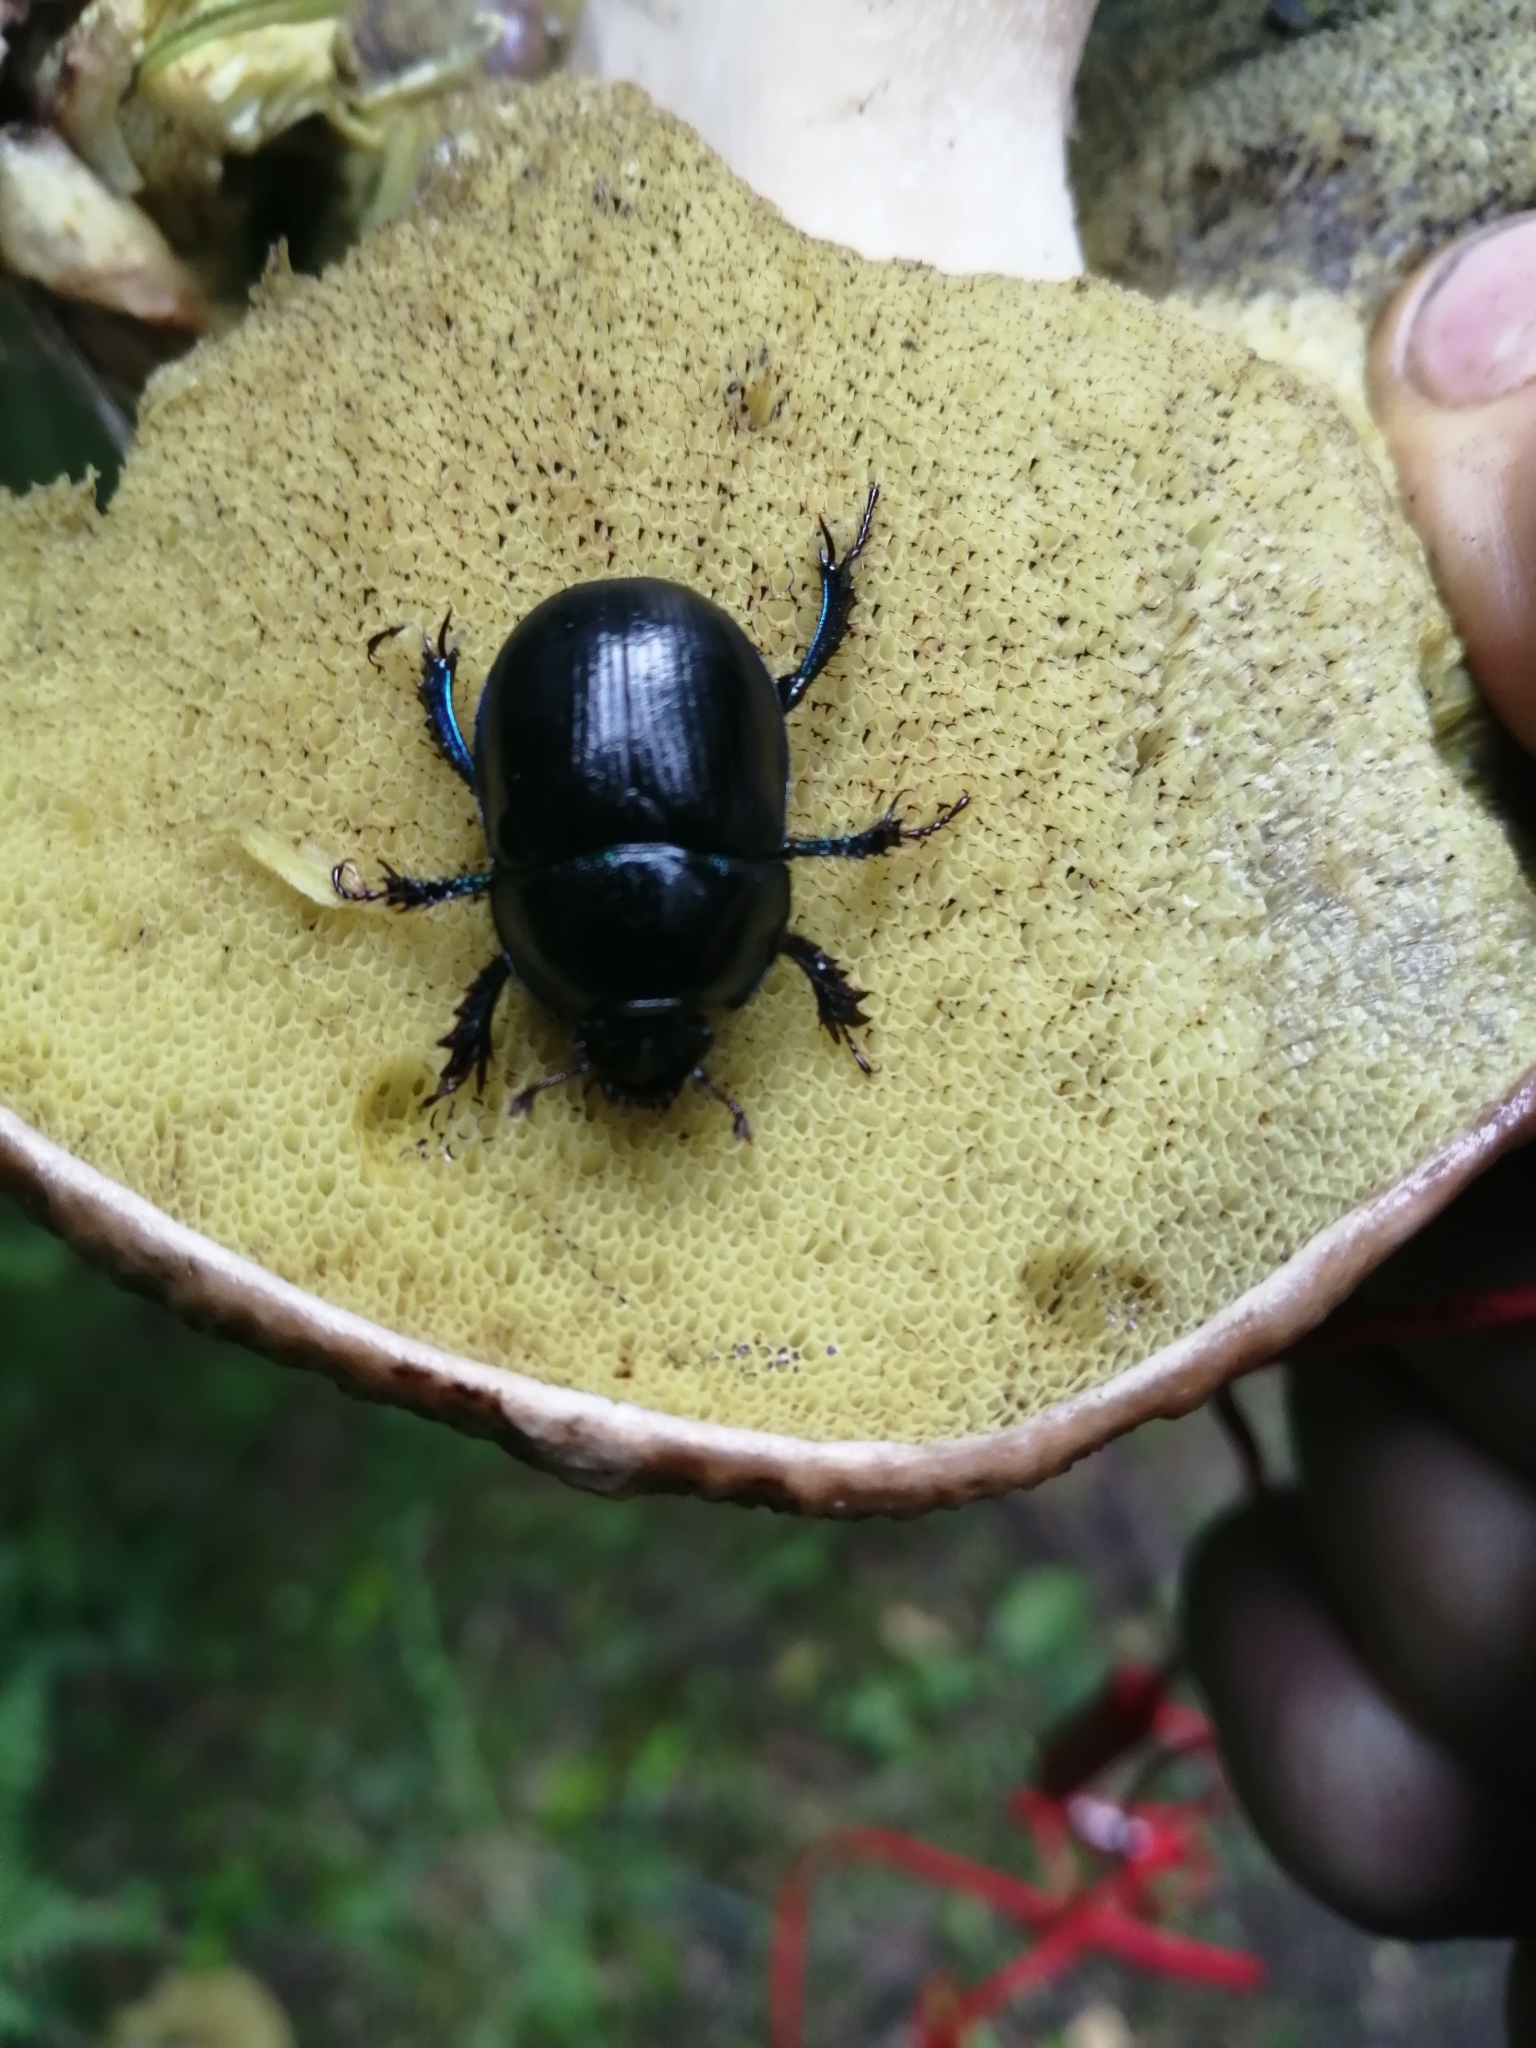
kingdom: Animalia
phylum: Arthropoda
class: Insecta
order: Coleoptera
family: Geotrupidae
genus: Anoplotrupes
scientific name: Anoplotrupes stercorosus
